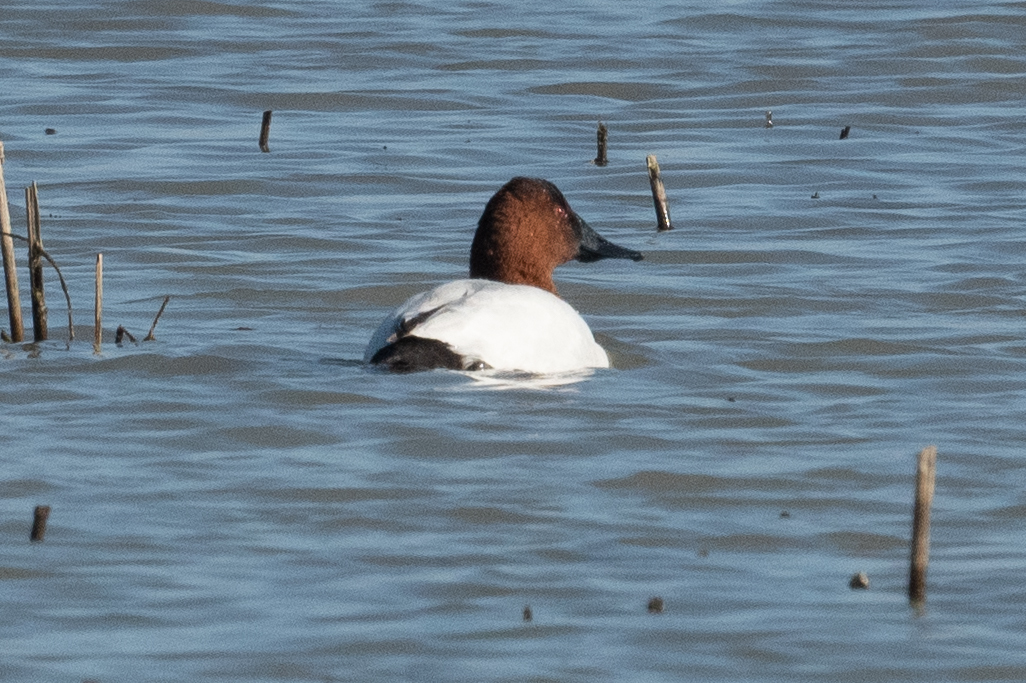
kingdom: Animalia
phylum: Chordata
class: Aves
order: Anseriformes
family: Anatidae
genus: Aythya
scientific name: Aythya valisineria
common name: Canvasback
